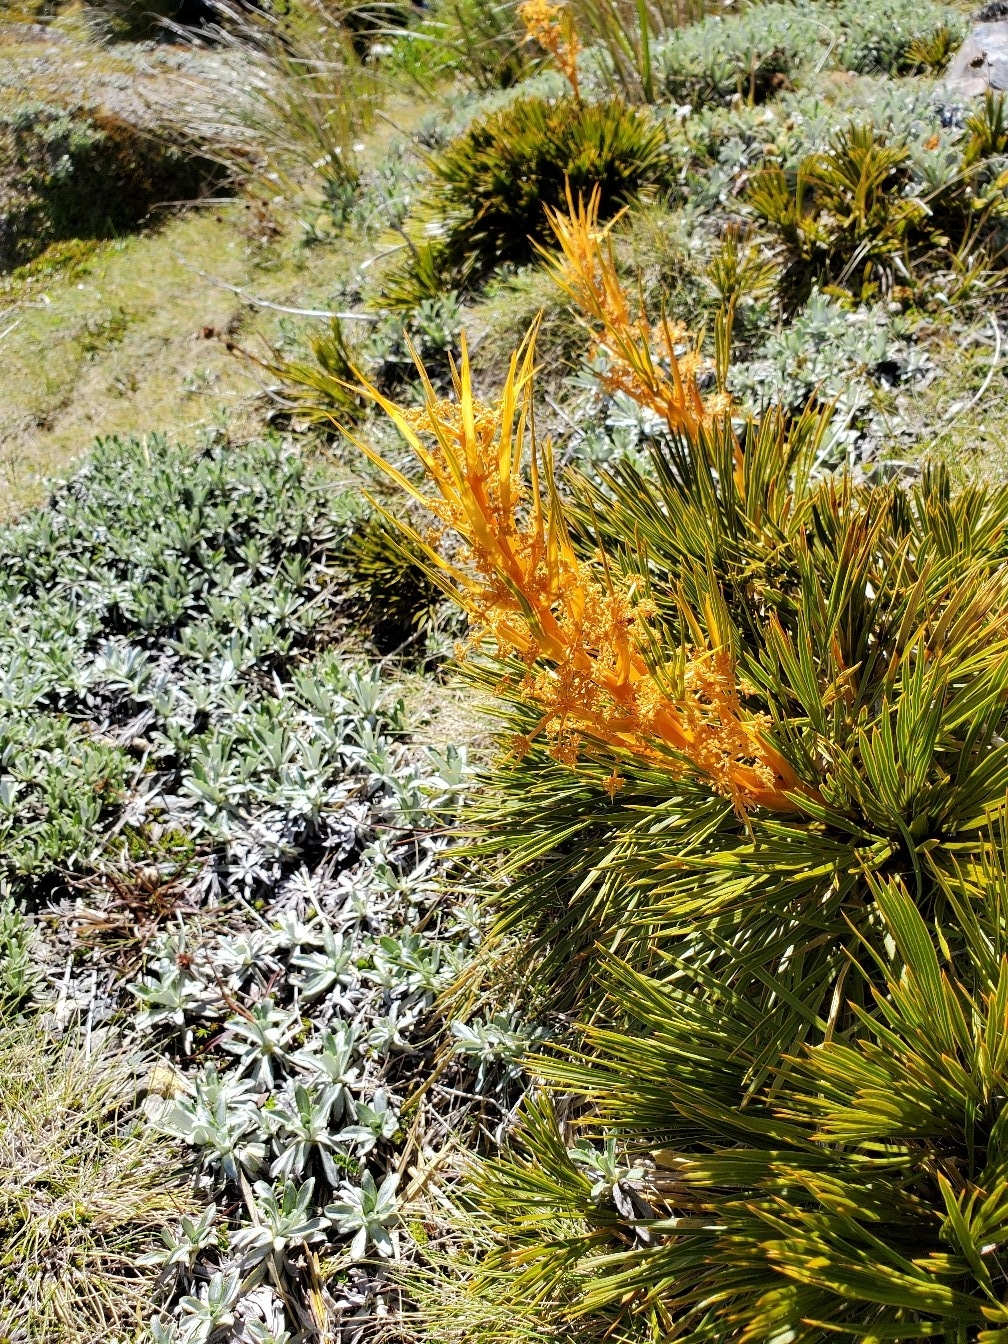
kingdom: Plantae
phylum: Tracheophyta
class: Magnoliopsida
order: Apiales
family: Apiaceae
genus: Aciphylla
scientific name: Aciphylla montana
